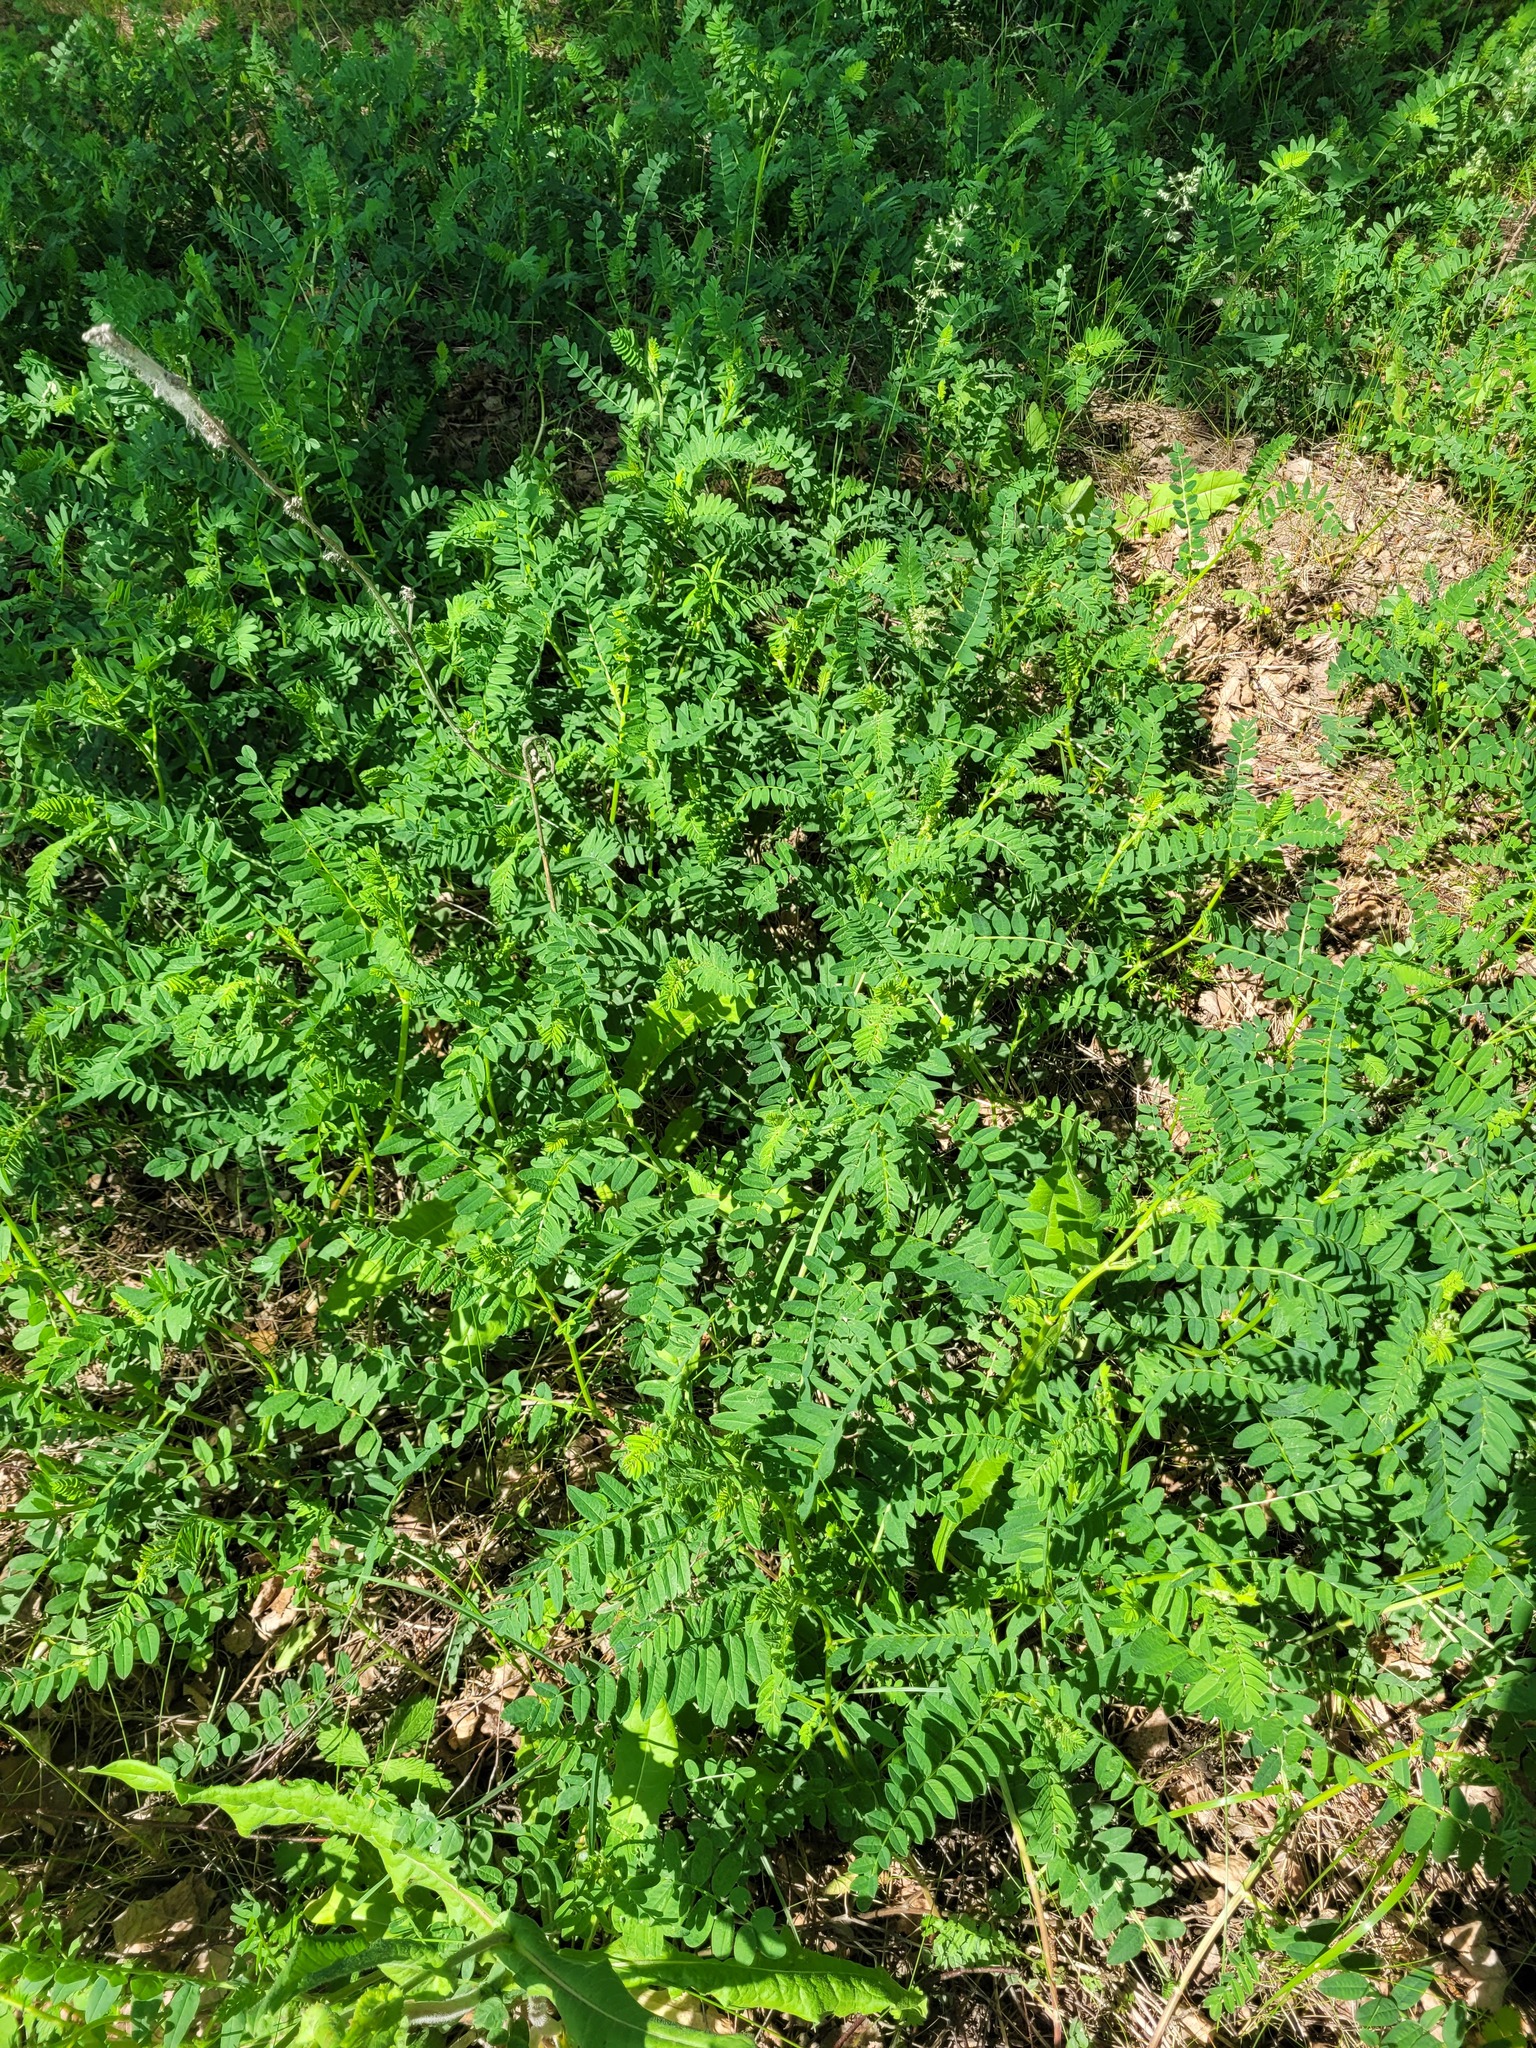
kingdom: Plantae
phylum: Tracheophyta
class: Magnoliopsida
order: Fabales
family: Fabaceae
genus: Astragalus
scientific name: Astragalus cicer
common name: Chick-pea milk-vetch
